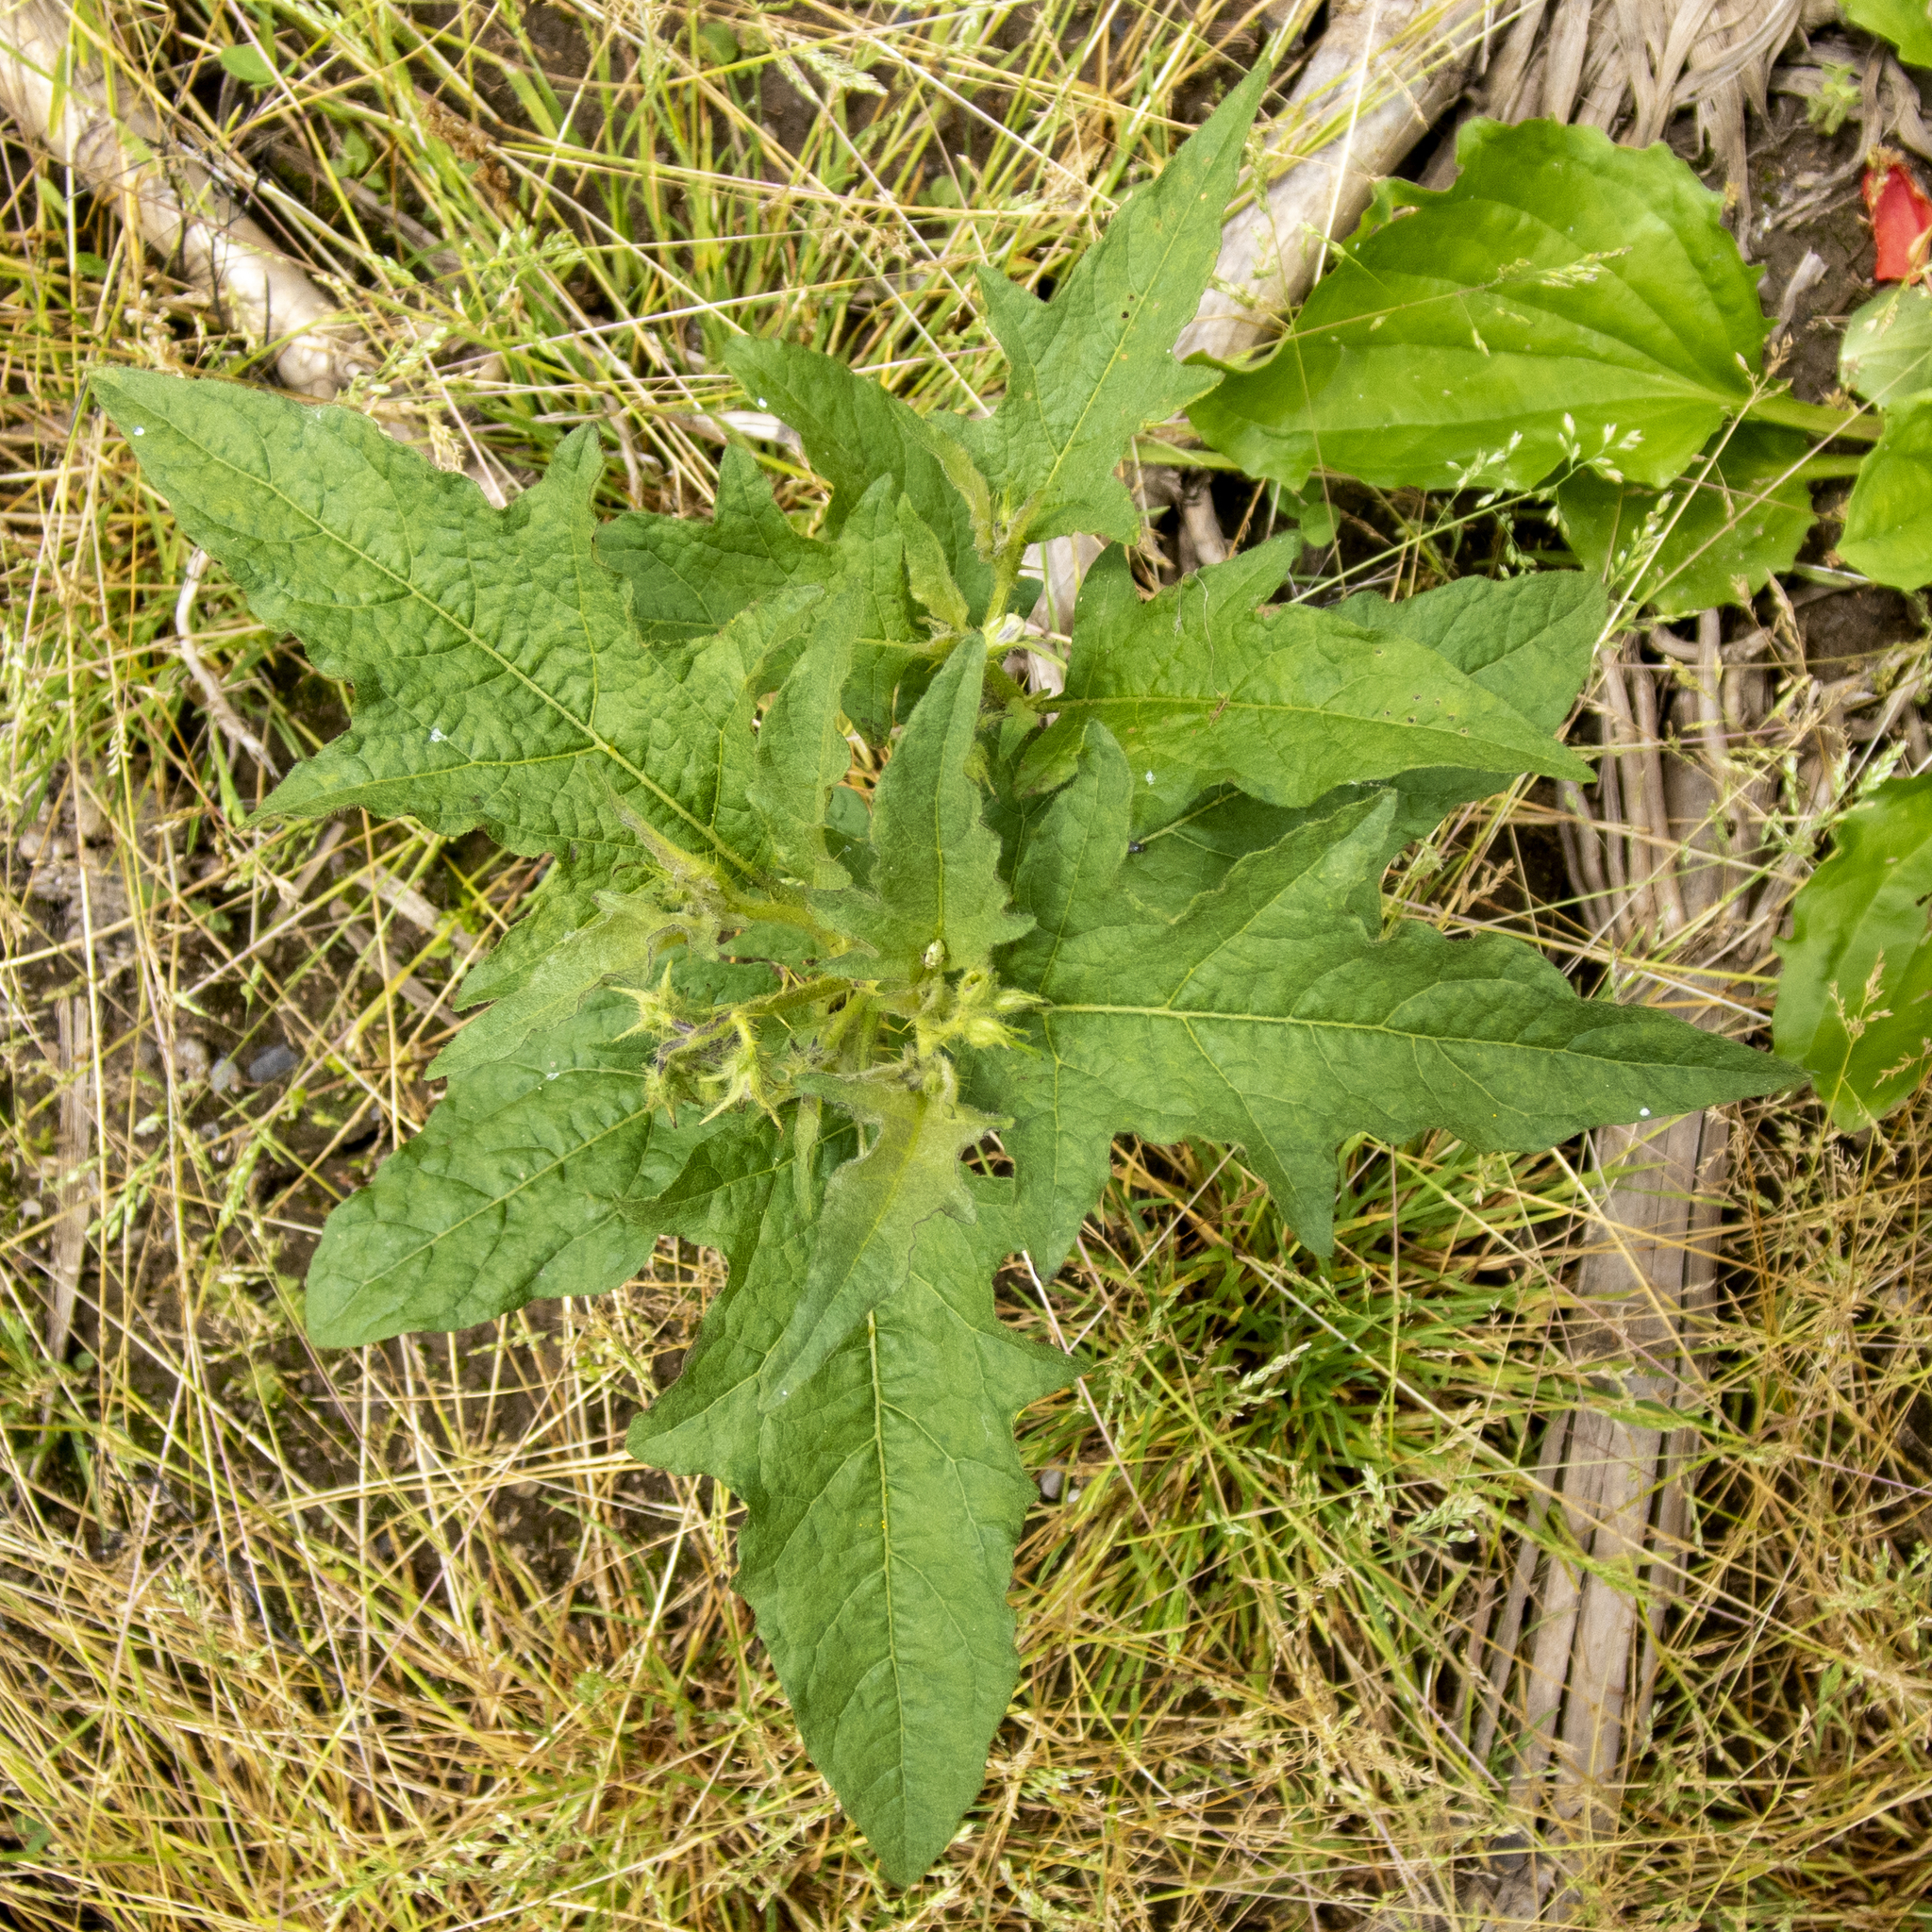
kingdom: Plantae
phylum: Tracheophyta
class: Magnoliopsida
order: Solanales
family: Solanaceae
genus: Solanum
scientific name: Solanum carolinense
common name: Horse-nettle
